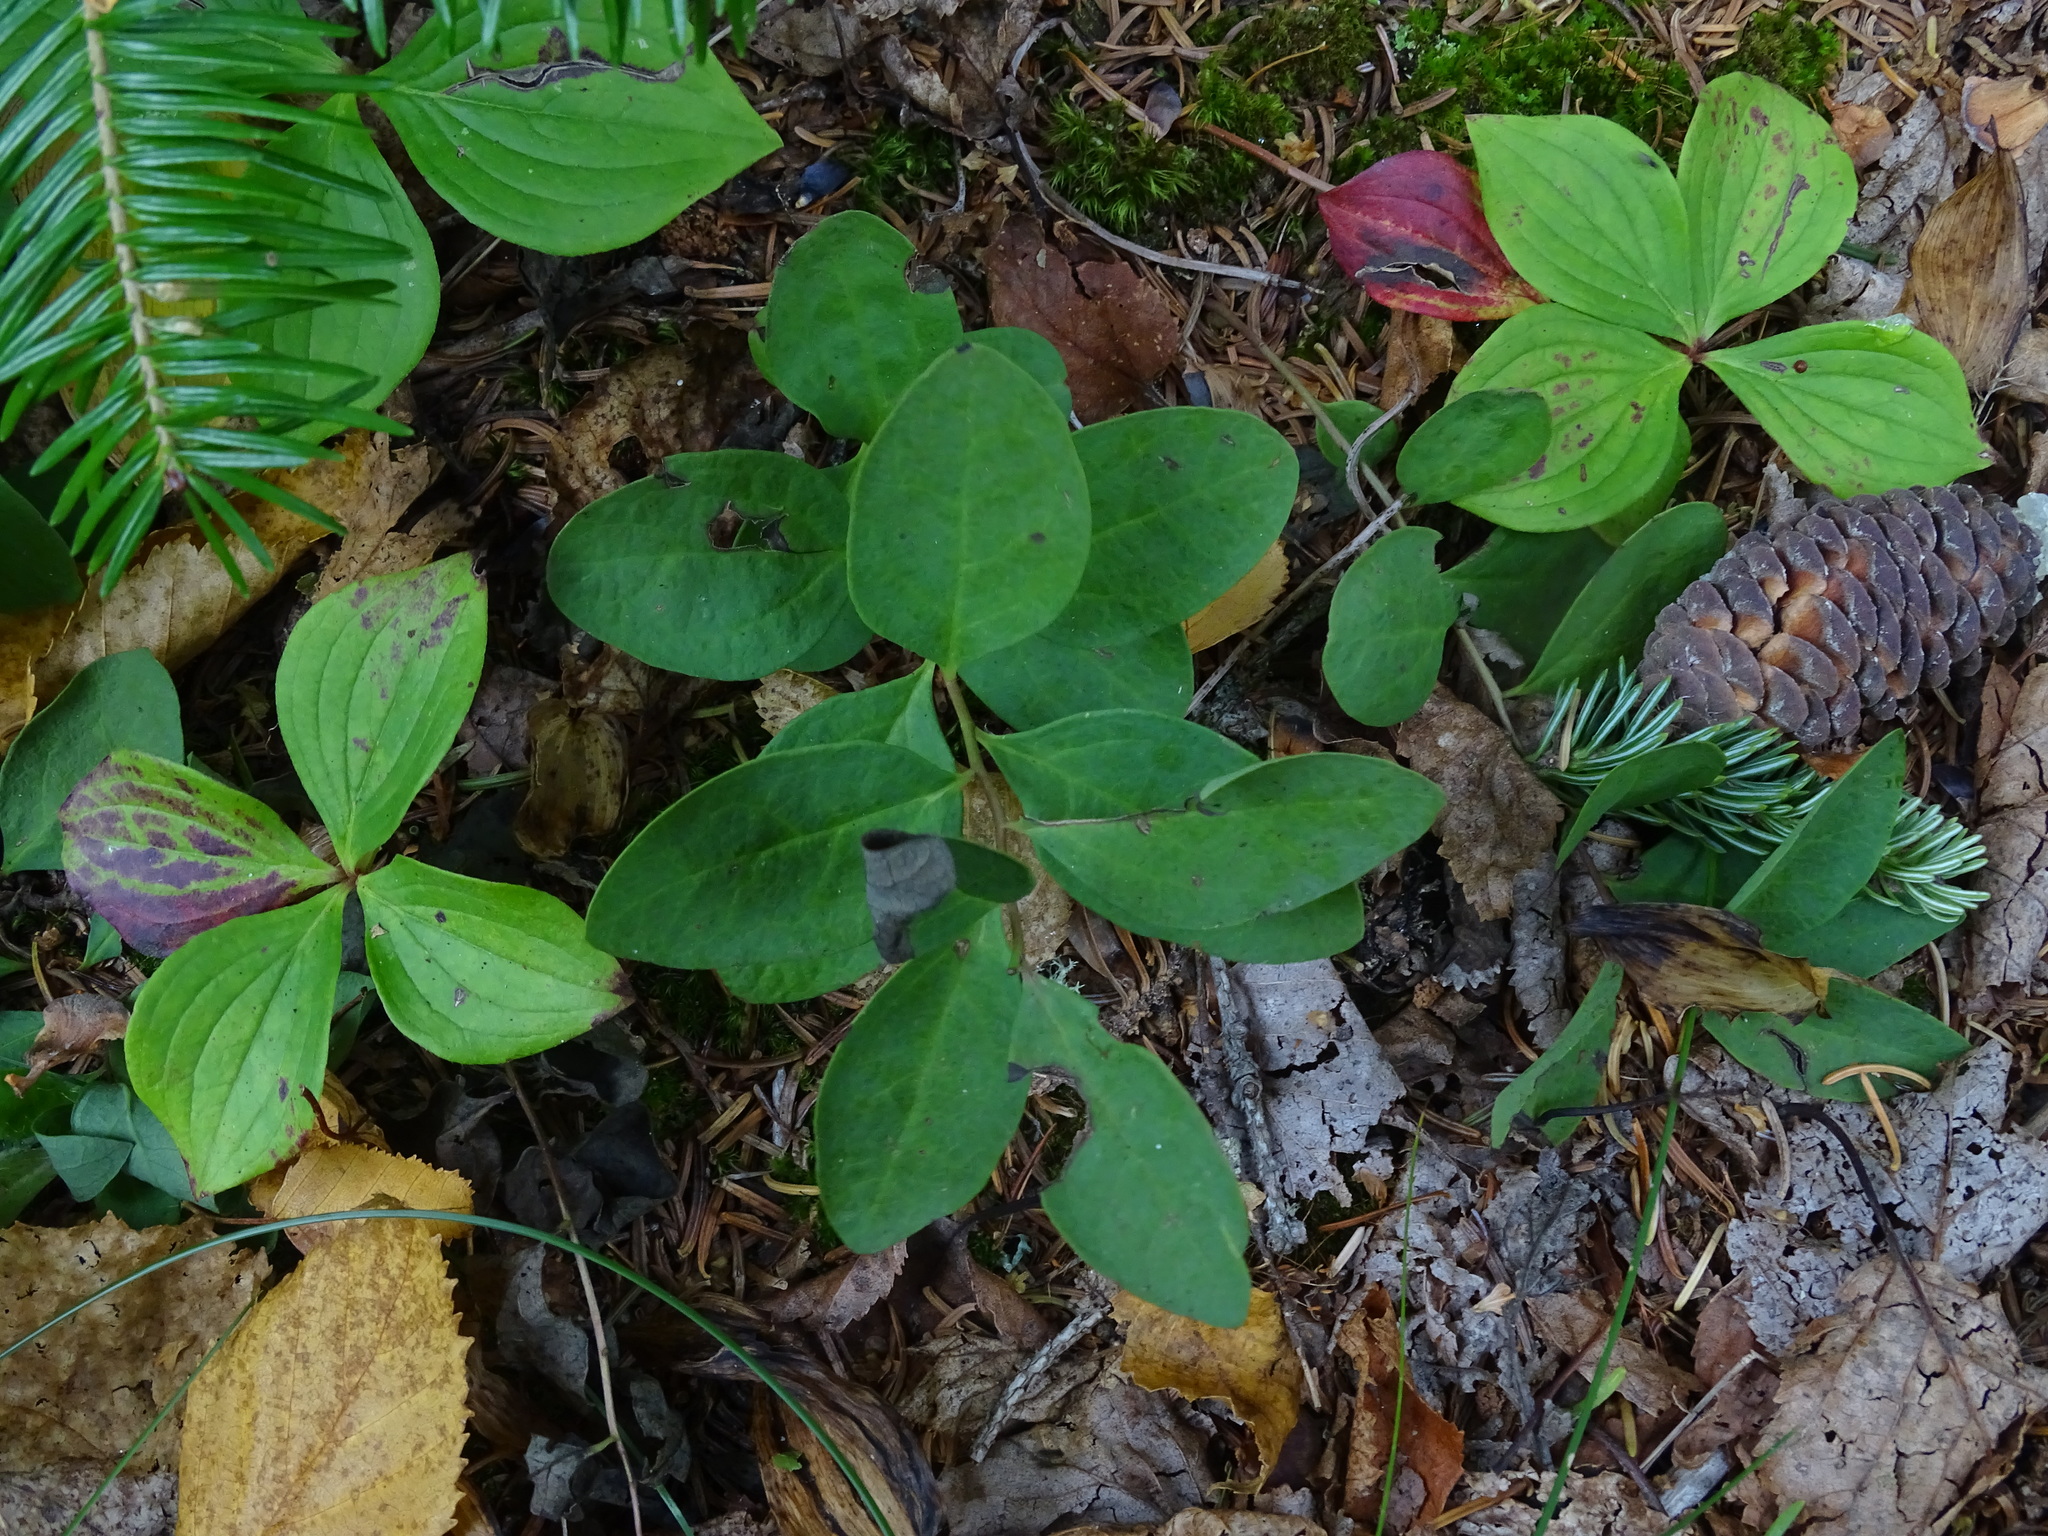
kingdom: Plantae
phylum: Tracheophyta
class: Magnoliopsida
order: Santalales
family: Comandraceae
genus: Geocaulon
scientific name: Geocaulon lividum
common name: Earthberry
